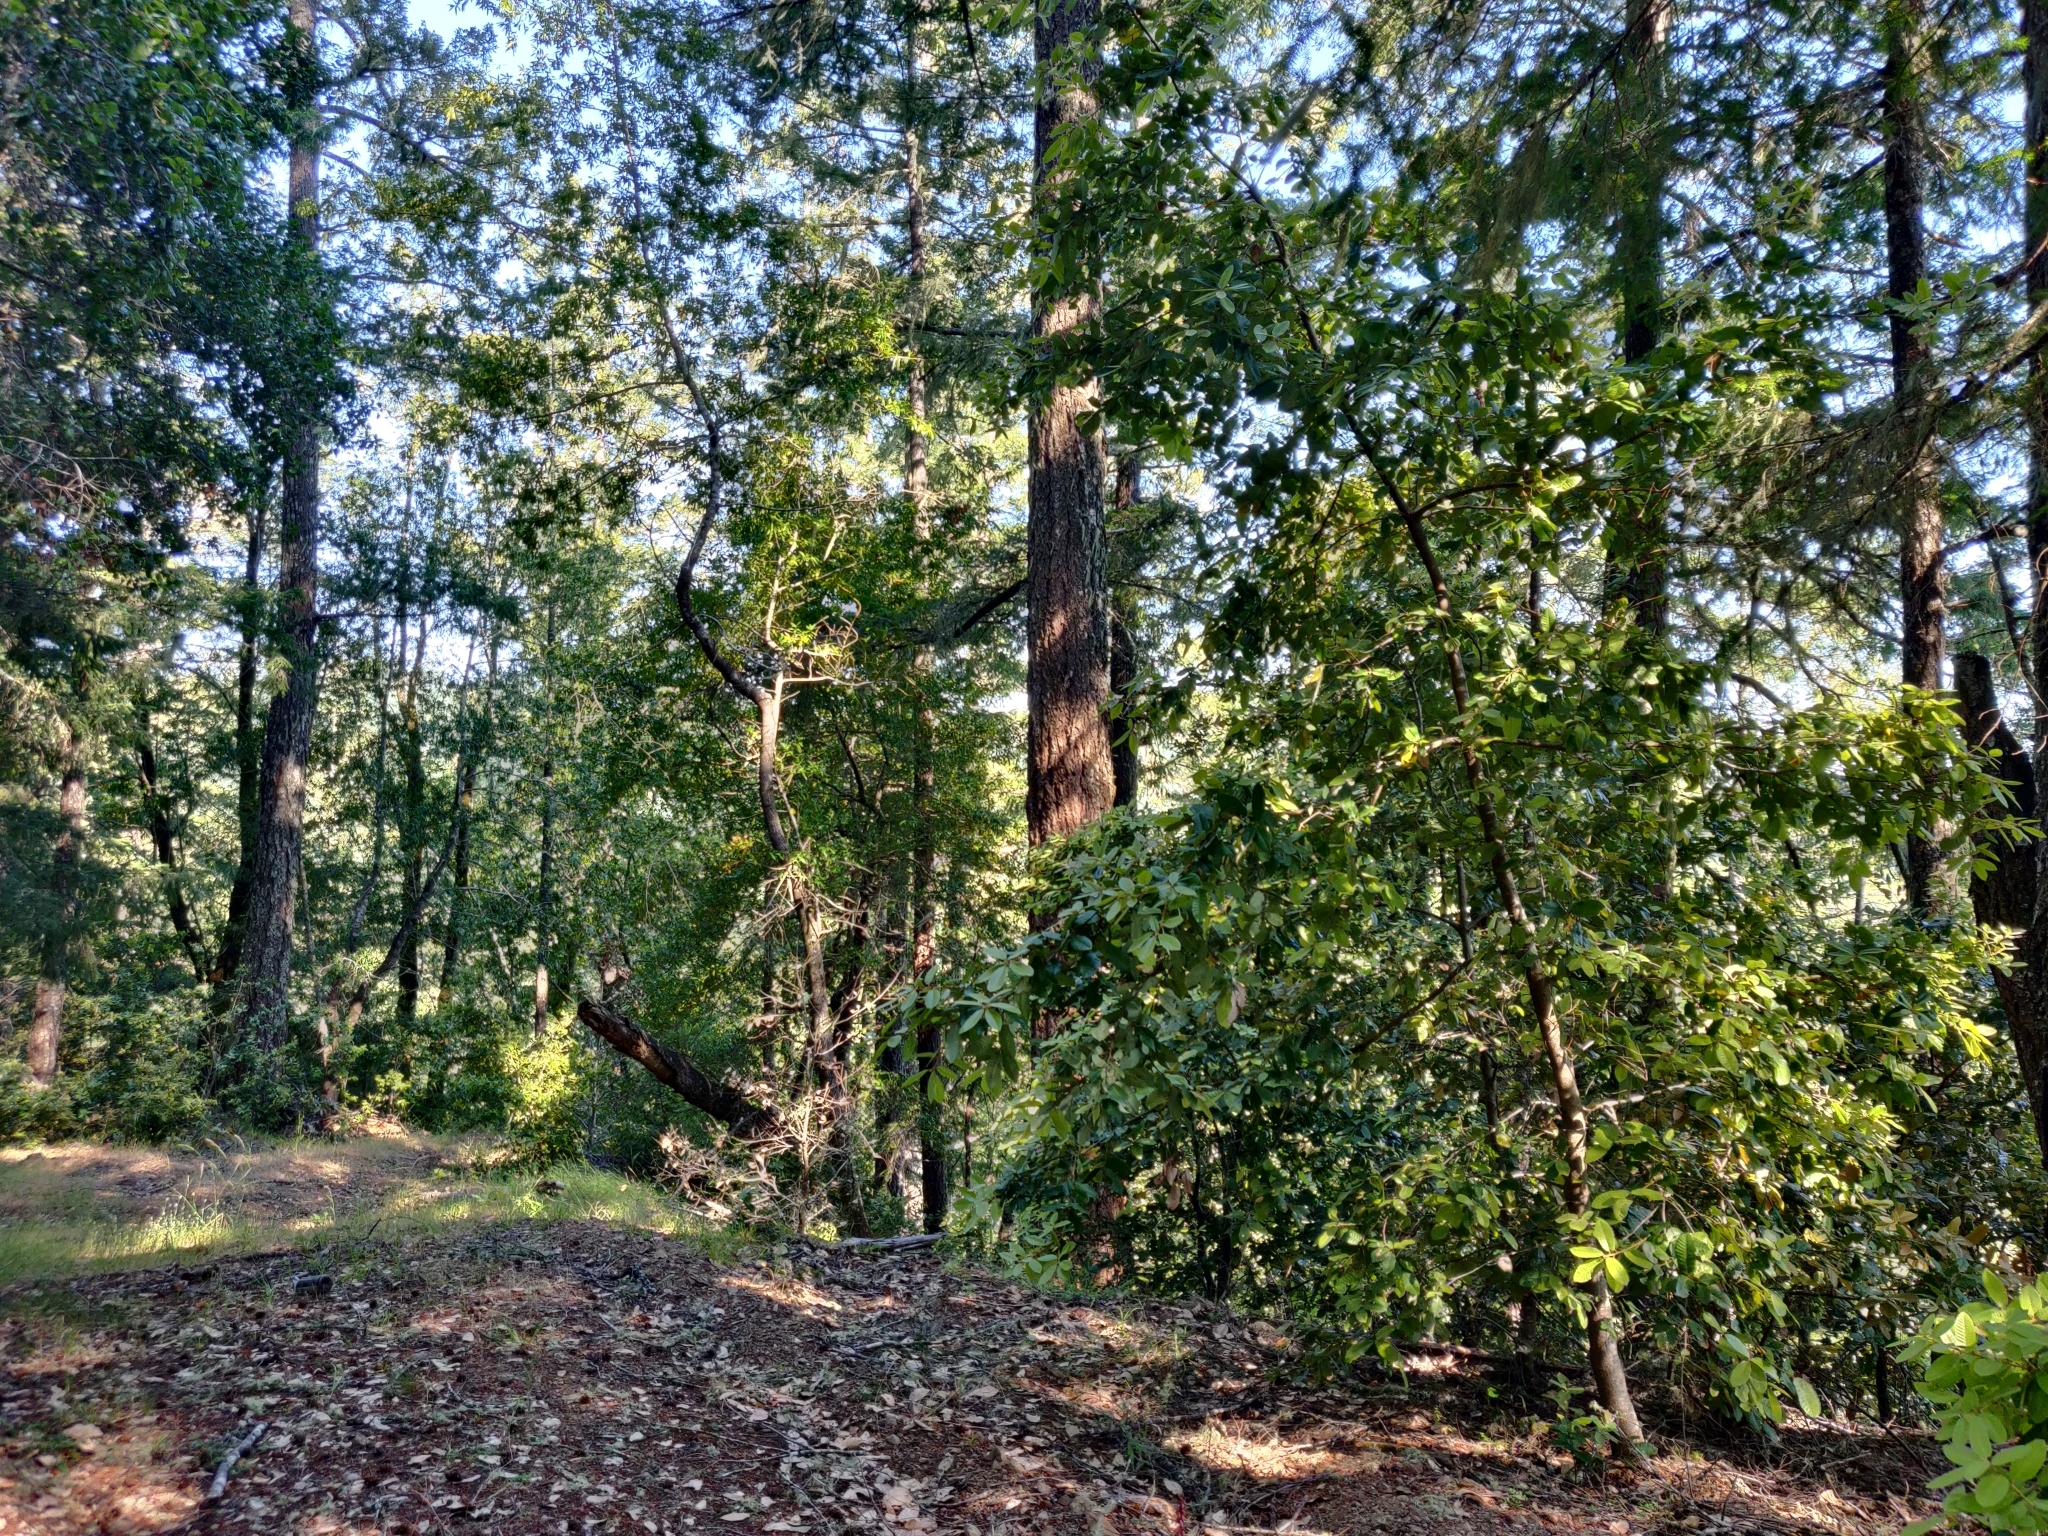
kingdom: Plantae
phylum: Tracheophyta
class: Magnoliopsida
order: Fagales
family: Fagaceae
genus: Notholithocarpus
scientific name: Notholithocarpus densiflorus
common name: Tan bark oak
